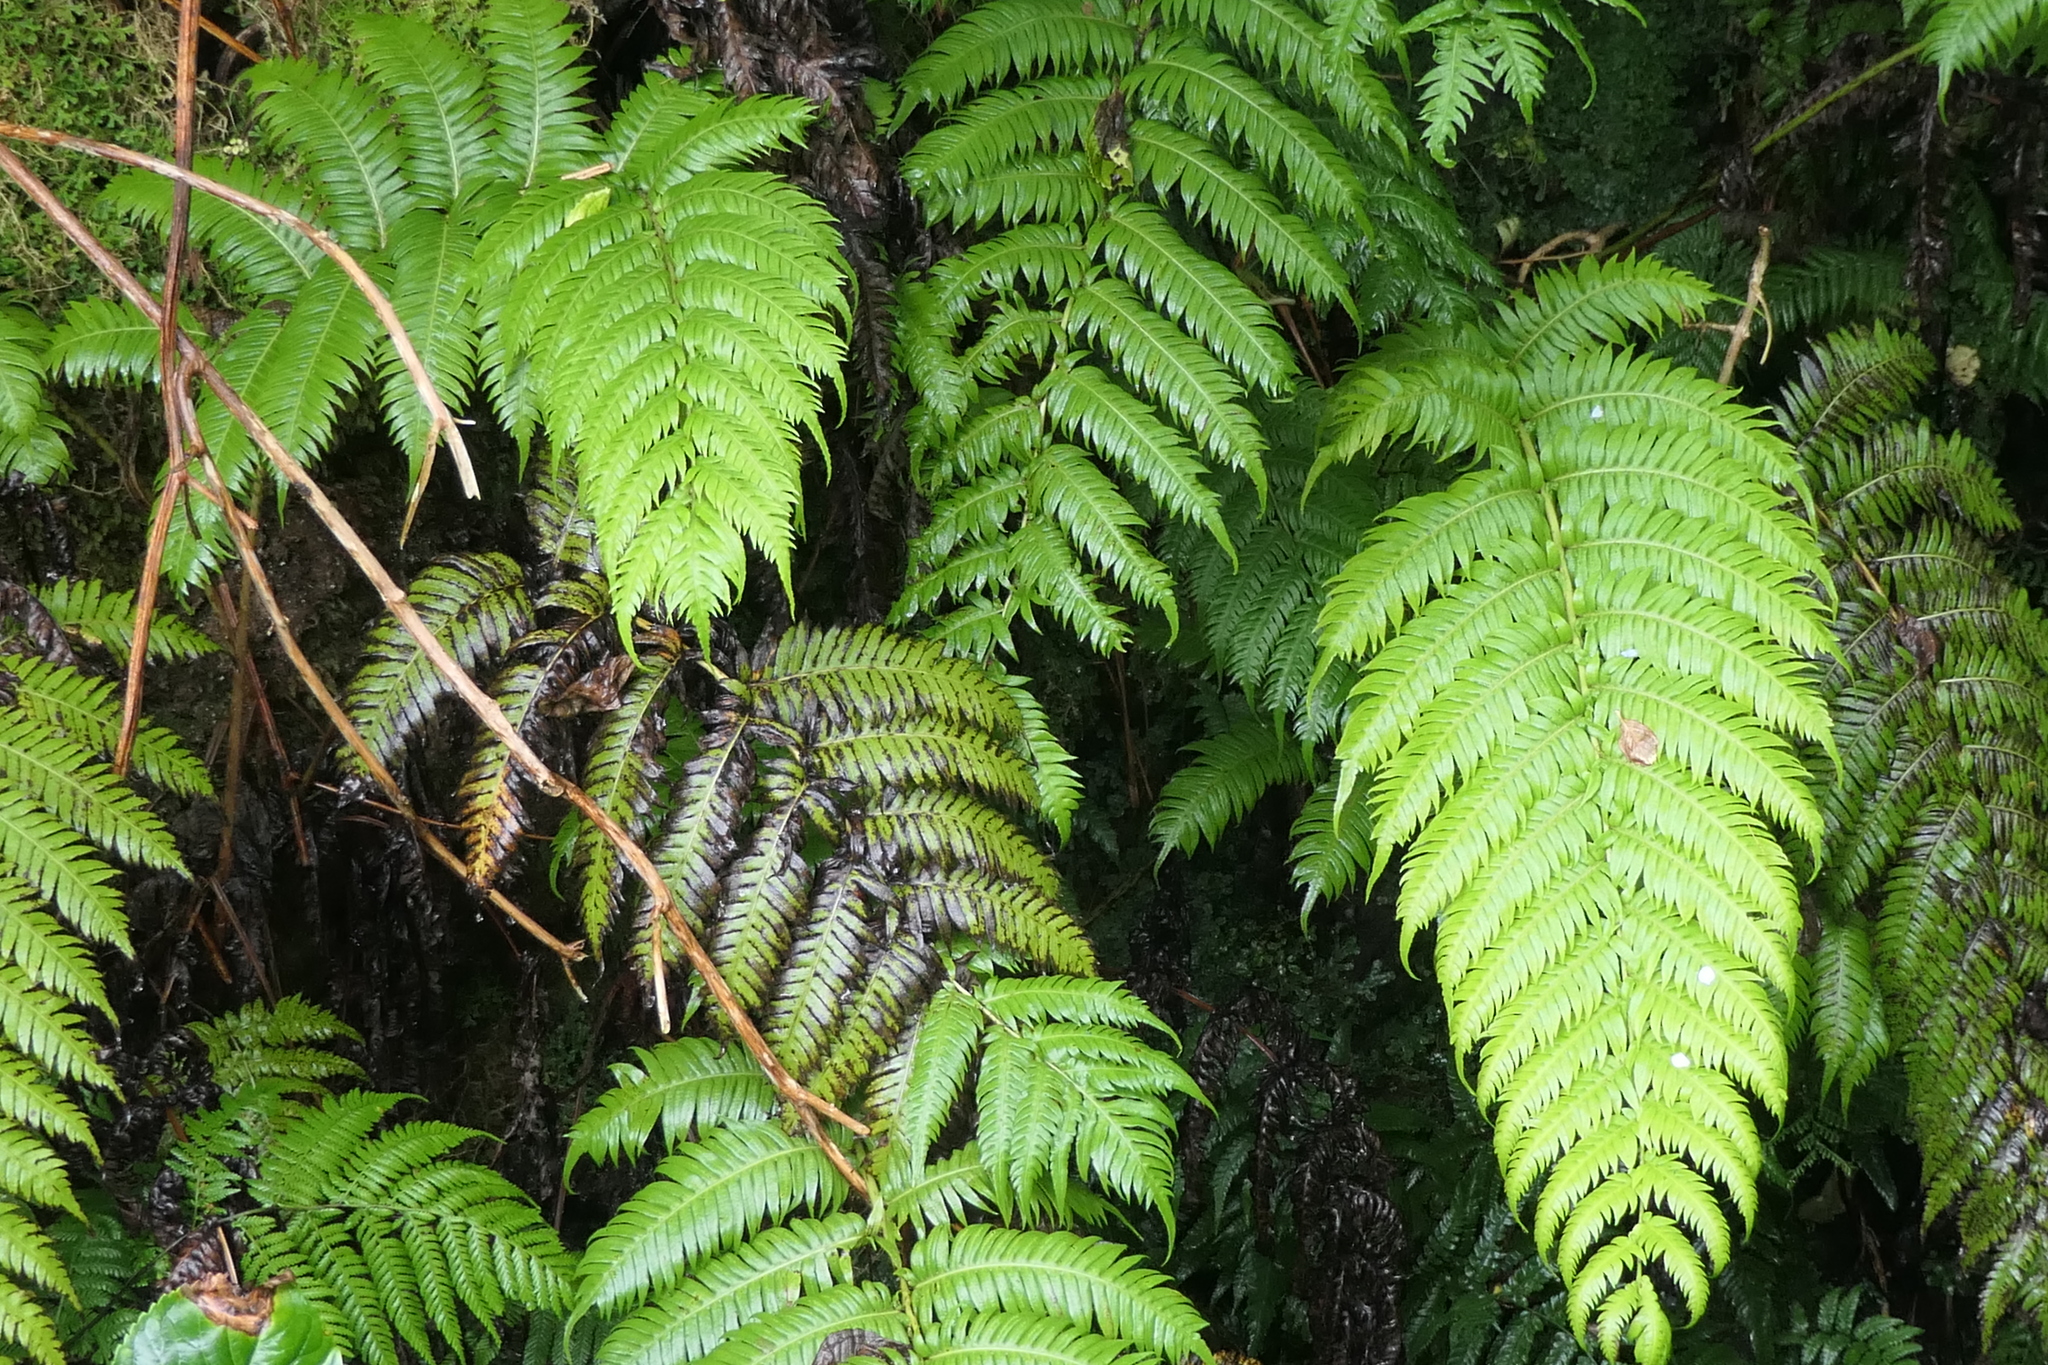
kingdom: Plantae
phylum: Tracheophyta
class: Polypodiopsida
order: Polypodiales
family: Blechnaceae
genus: Woodwardia
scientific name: Woodwardia radicans
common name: Rooting chainfern
